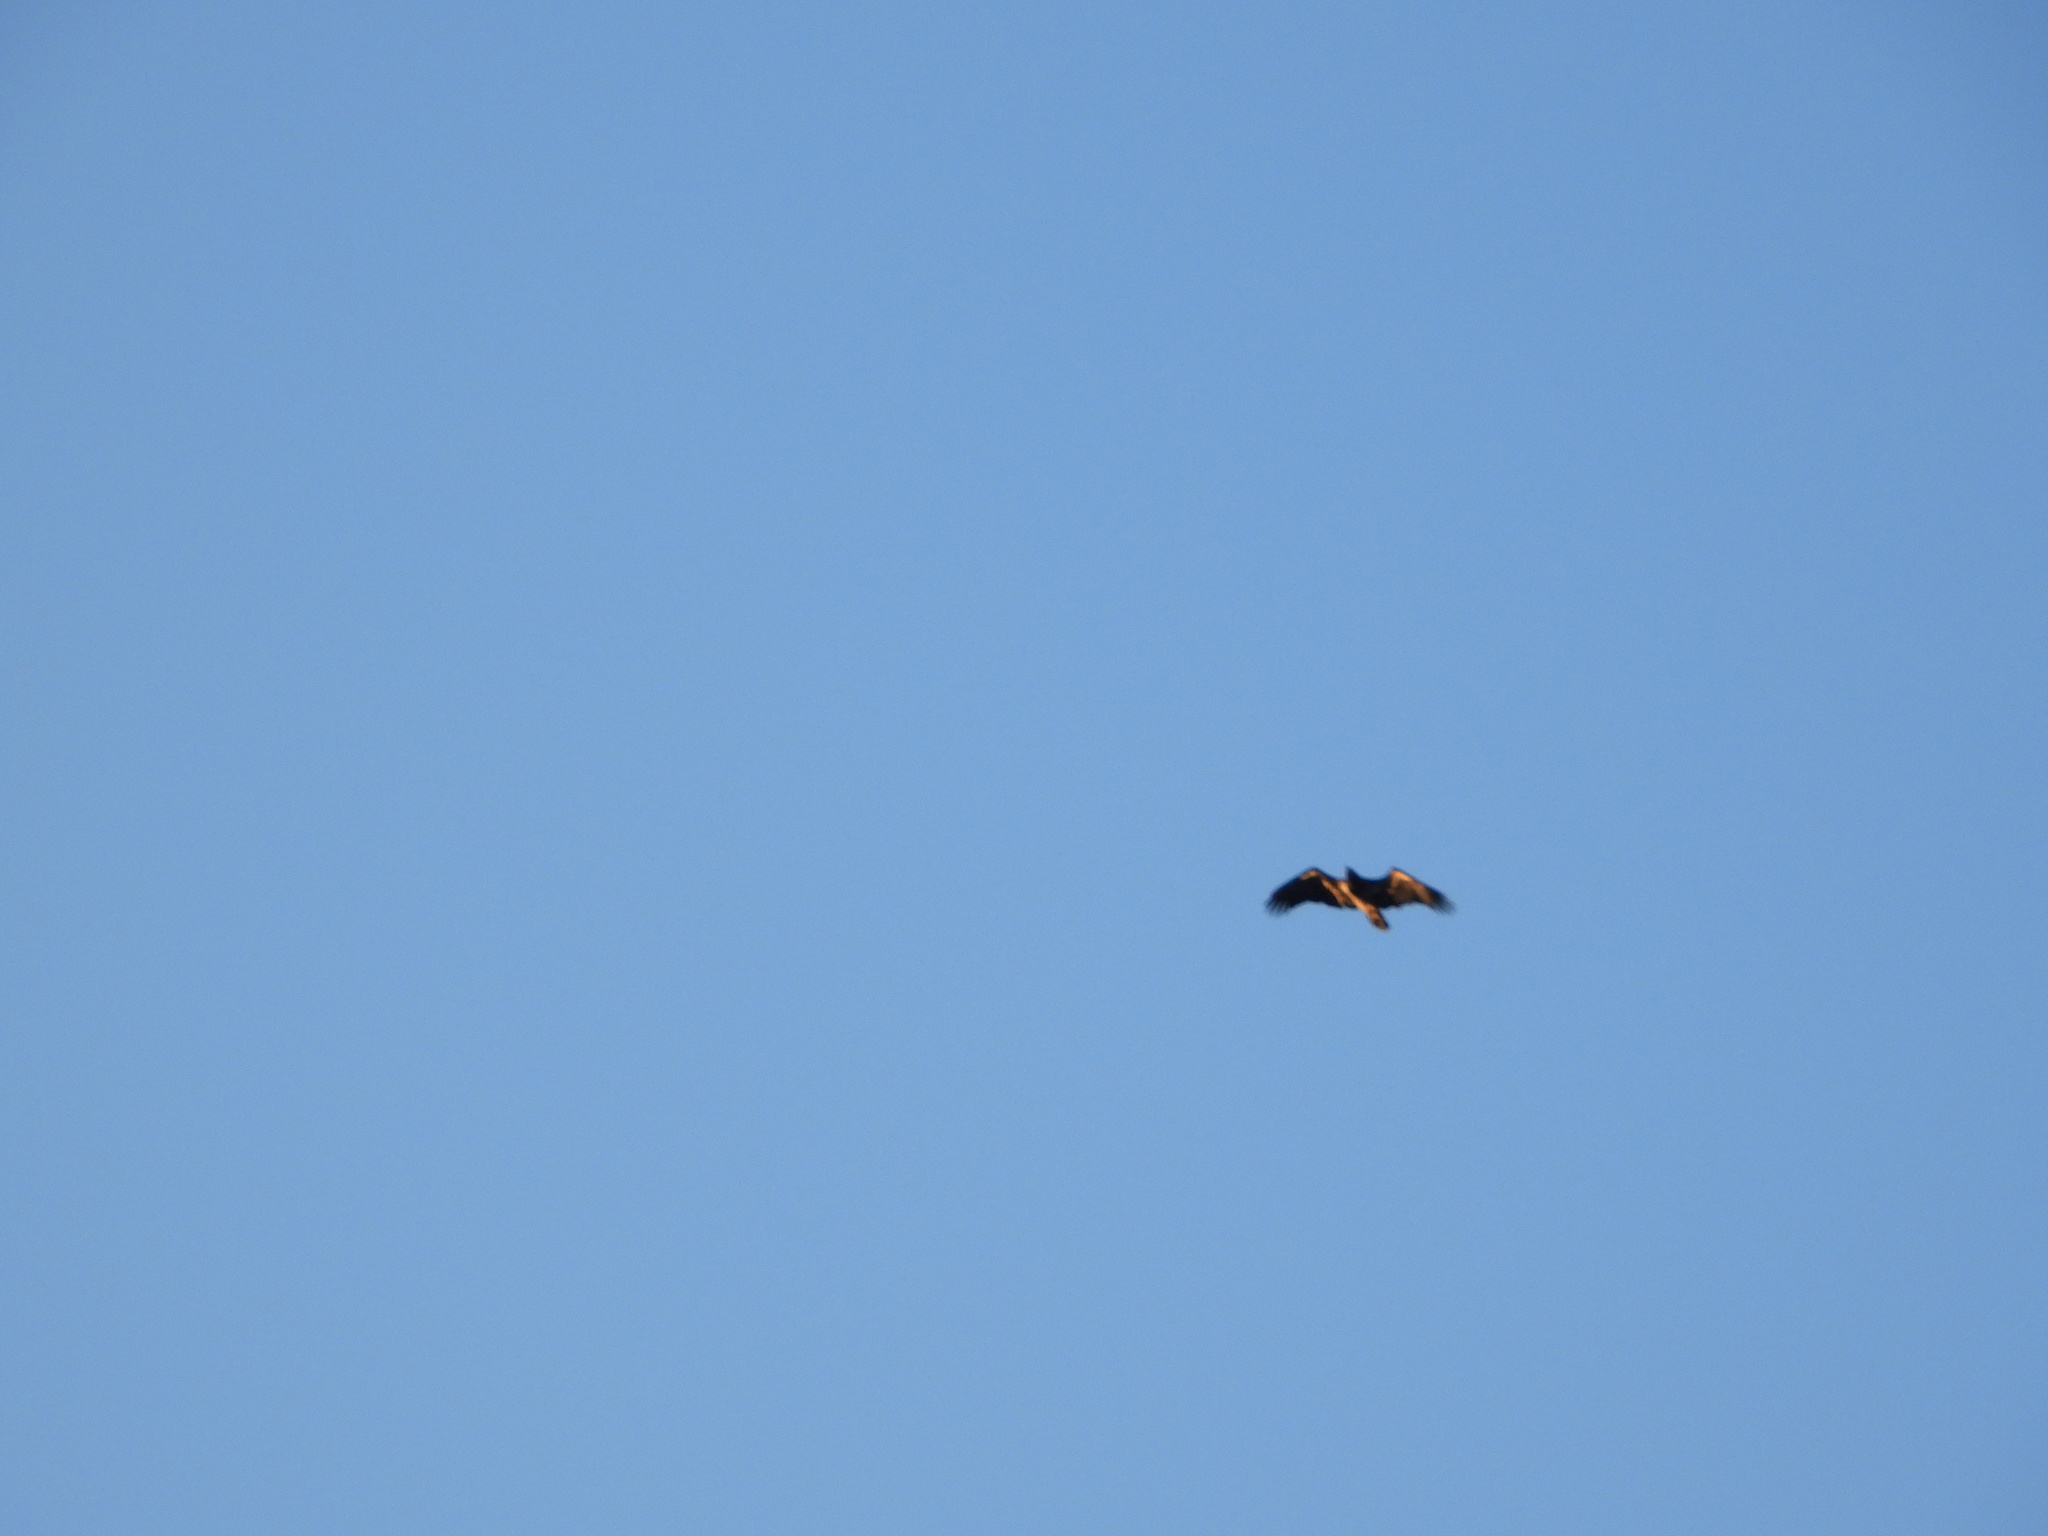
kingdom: Animalia
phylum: Chordata
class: Aves
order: Accipitriformes
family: Accipitridae
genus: Haliaeetus
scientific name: Haliaeetus leucocephalus
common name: Bald eagle
